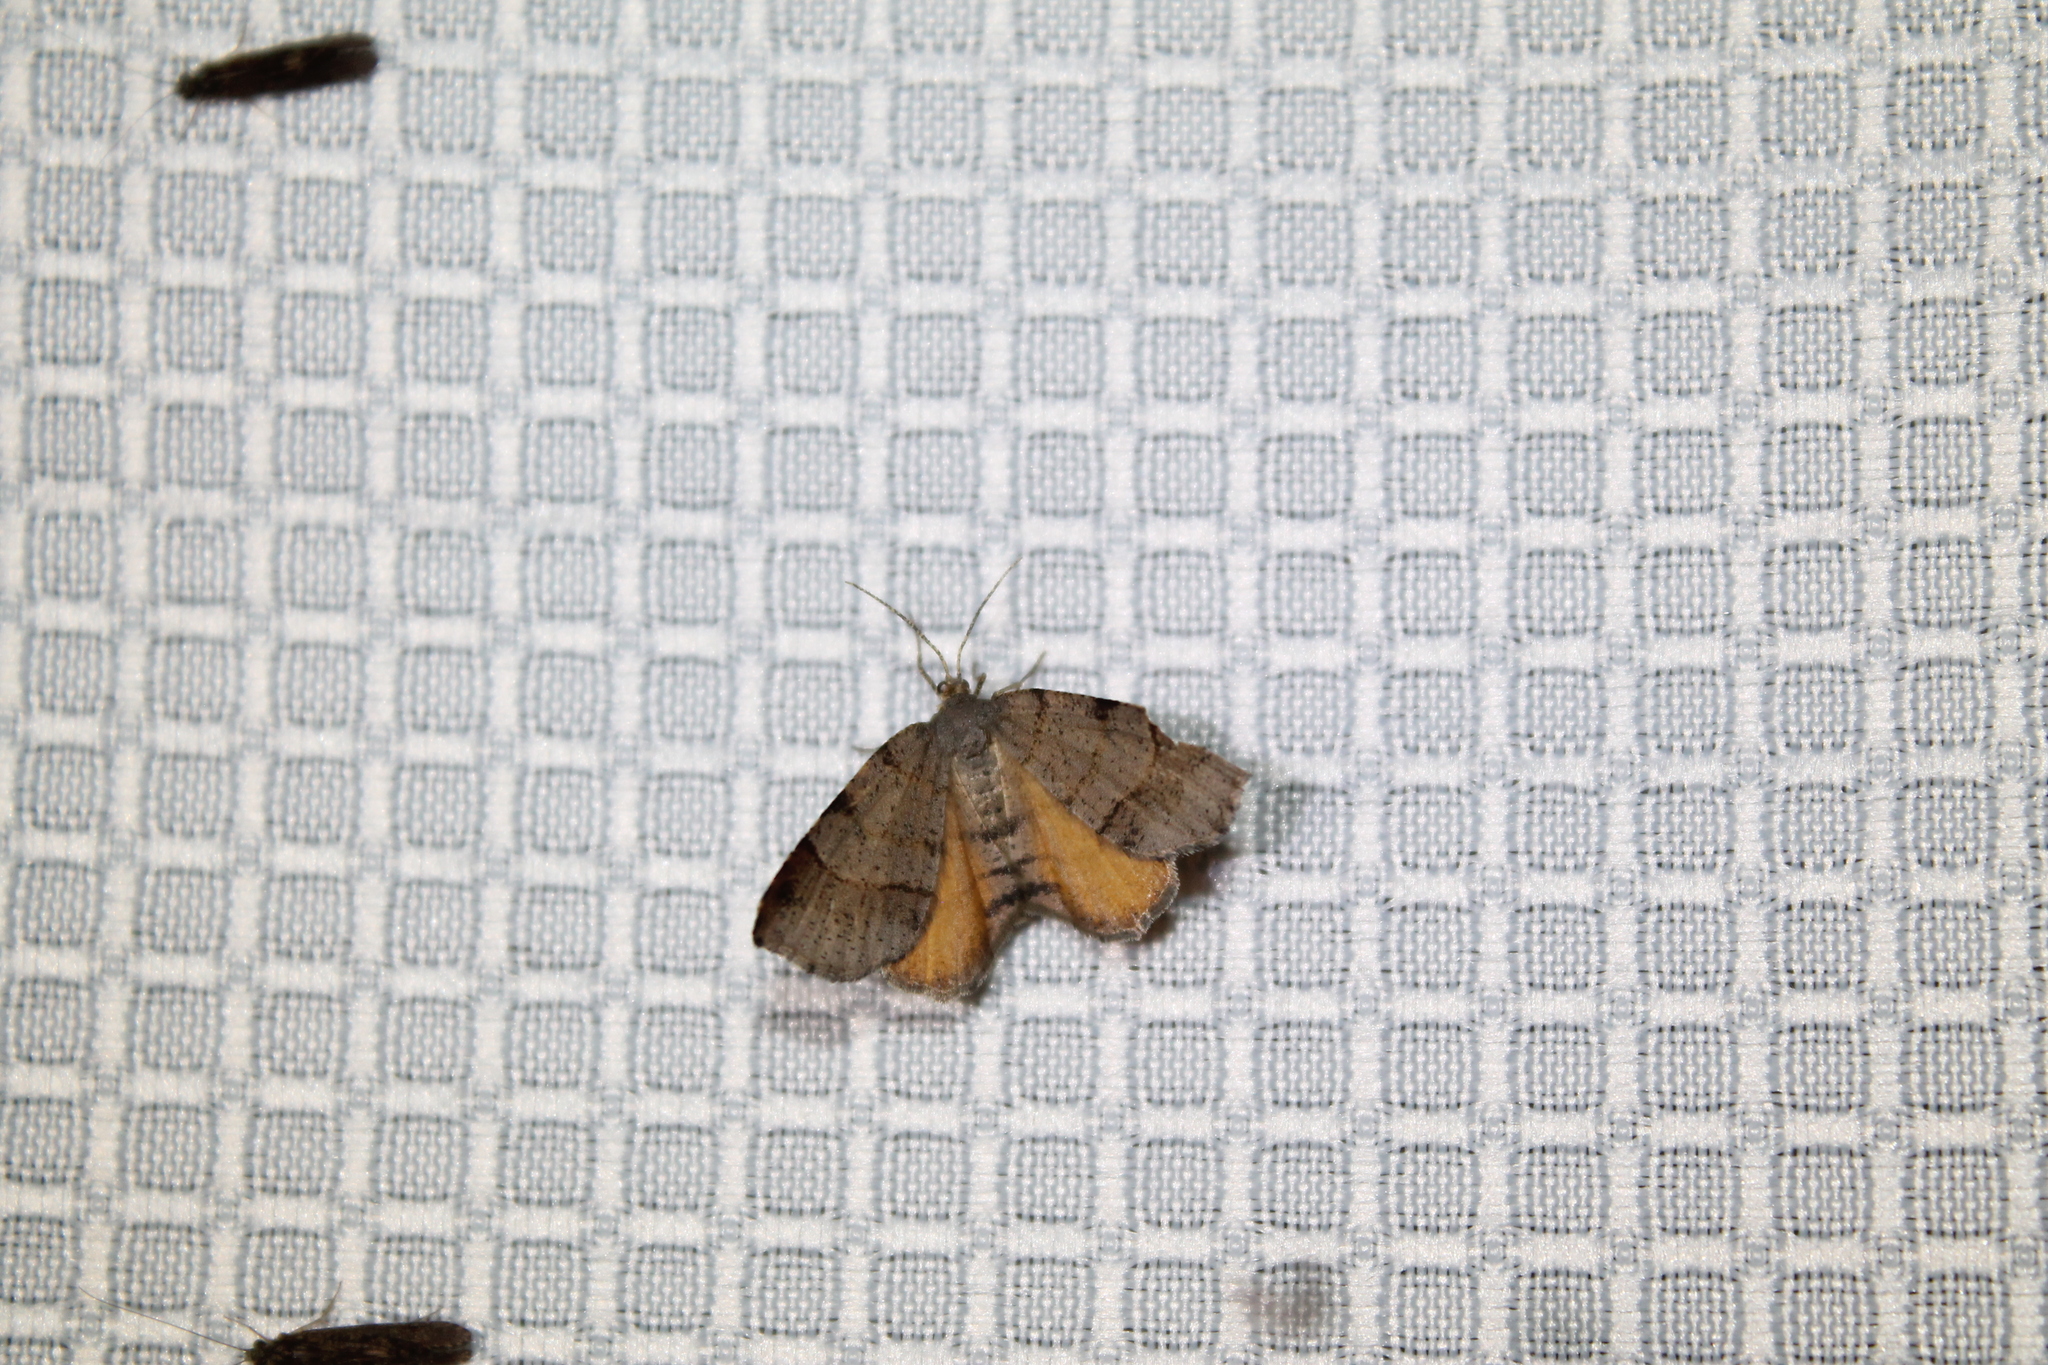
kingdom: Animalia
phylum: Arthropoda
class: Insecta
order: Lepidoptera
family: Geometridae
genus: Mellilla
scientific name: Mellilla xanthometata
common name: Orange wing moth
